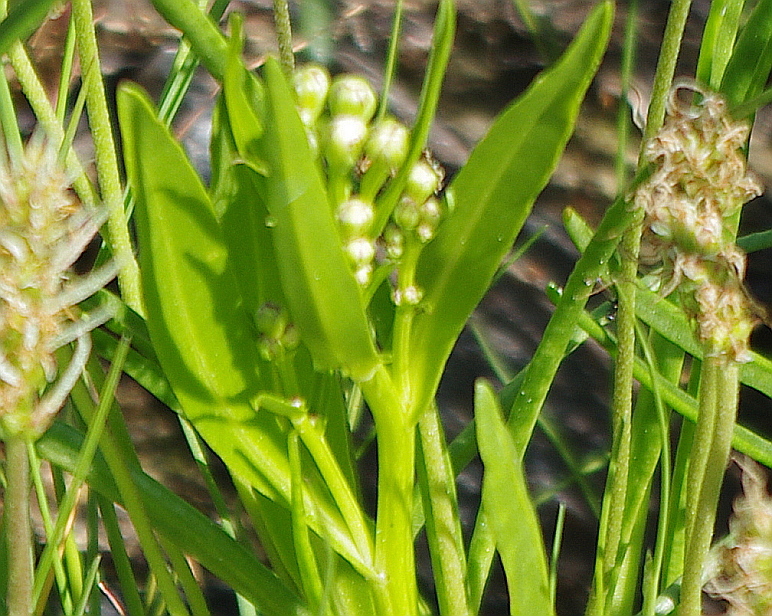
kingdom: Plantae
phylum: Tracheophyta
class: Magnoliopsida
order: Asterales
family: Asteraceae
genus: Tripolium
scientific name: Tripolium pannonicum
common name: Sea aster
